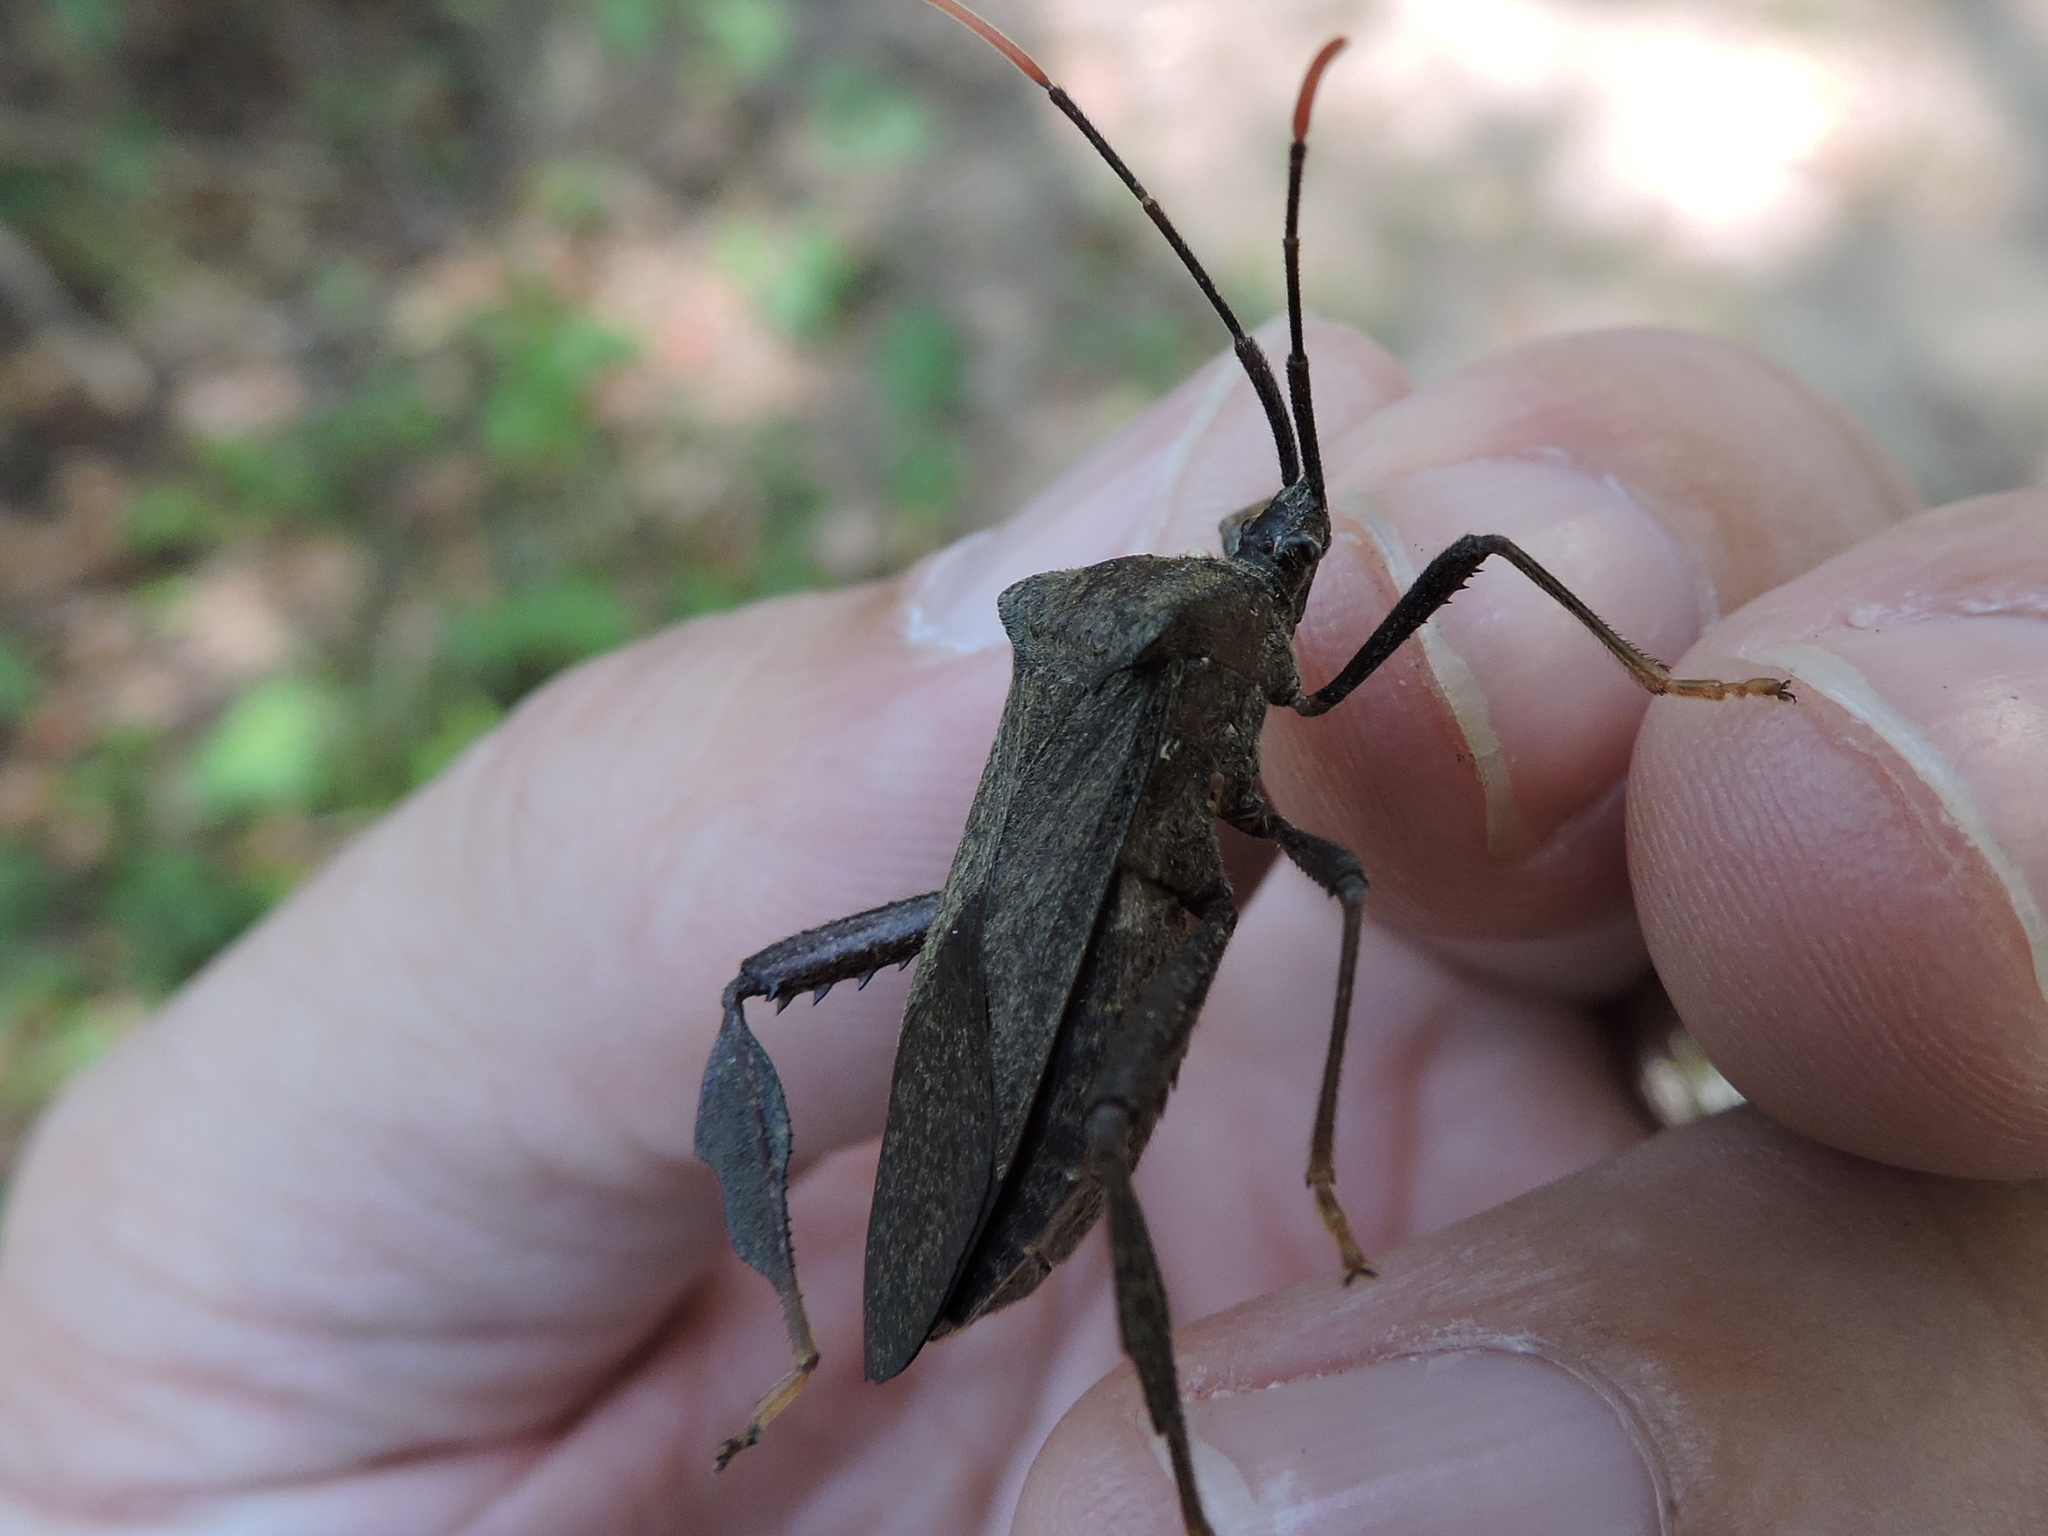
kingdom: Animalia
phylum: Arthropoda
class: Insecta
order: Hemiptera
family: Coreidae
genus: Acanthocephala
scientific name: Acanthocephala terminalis
